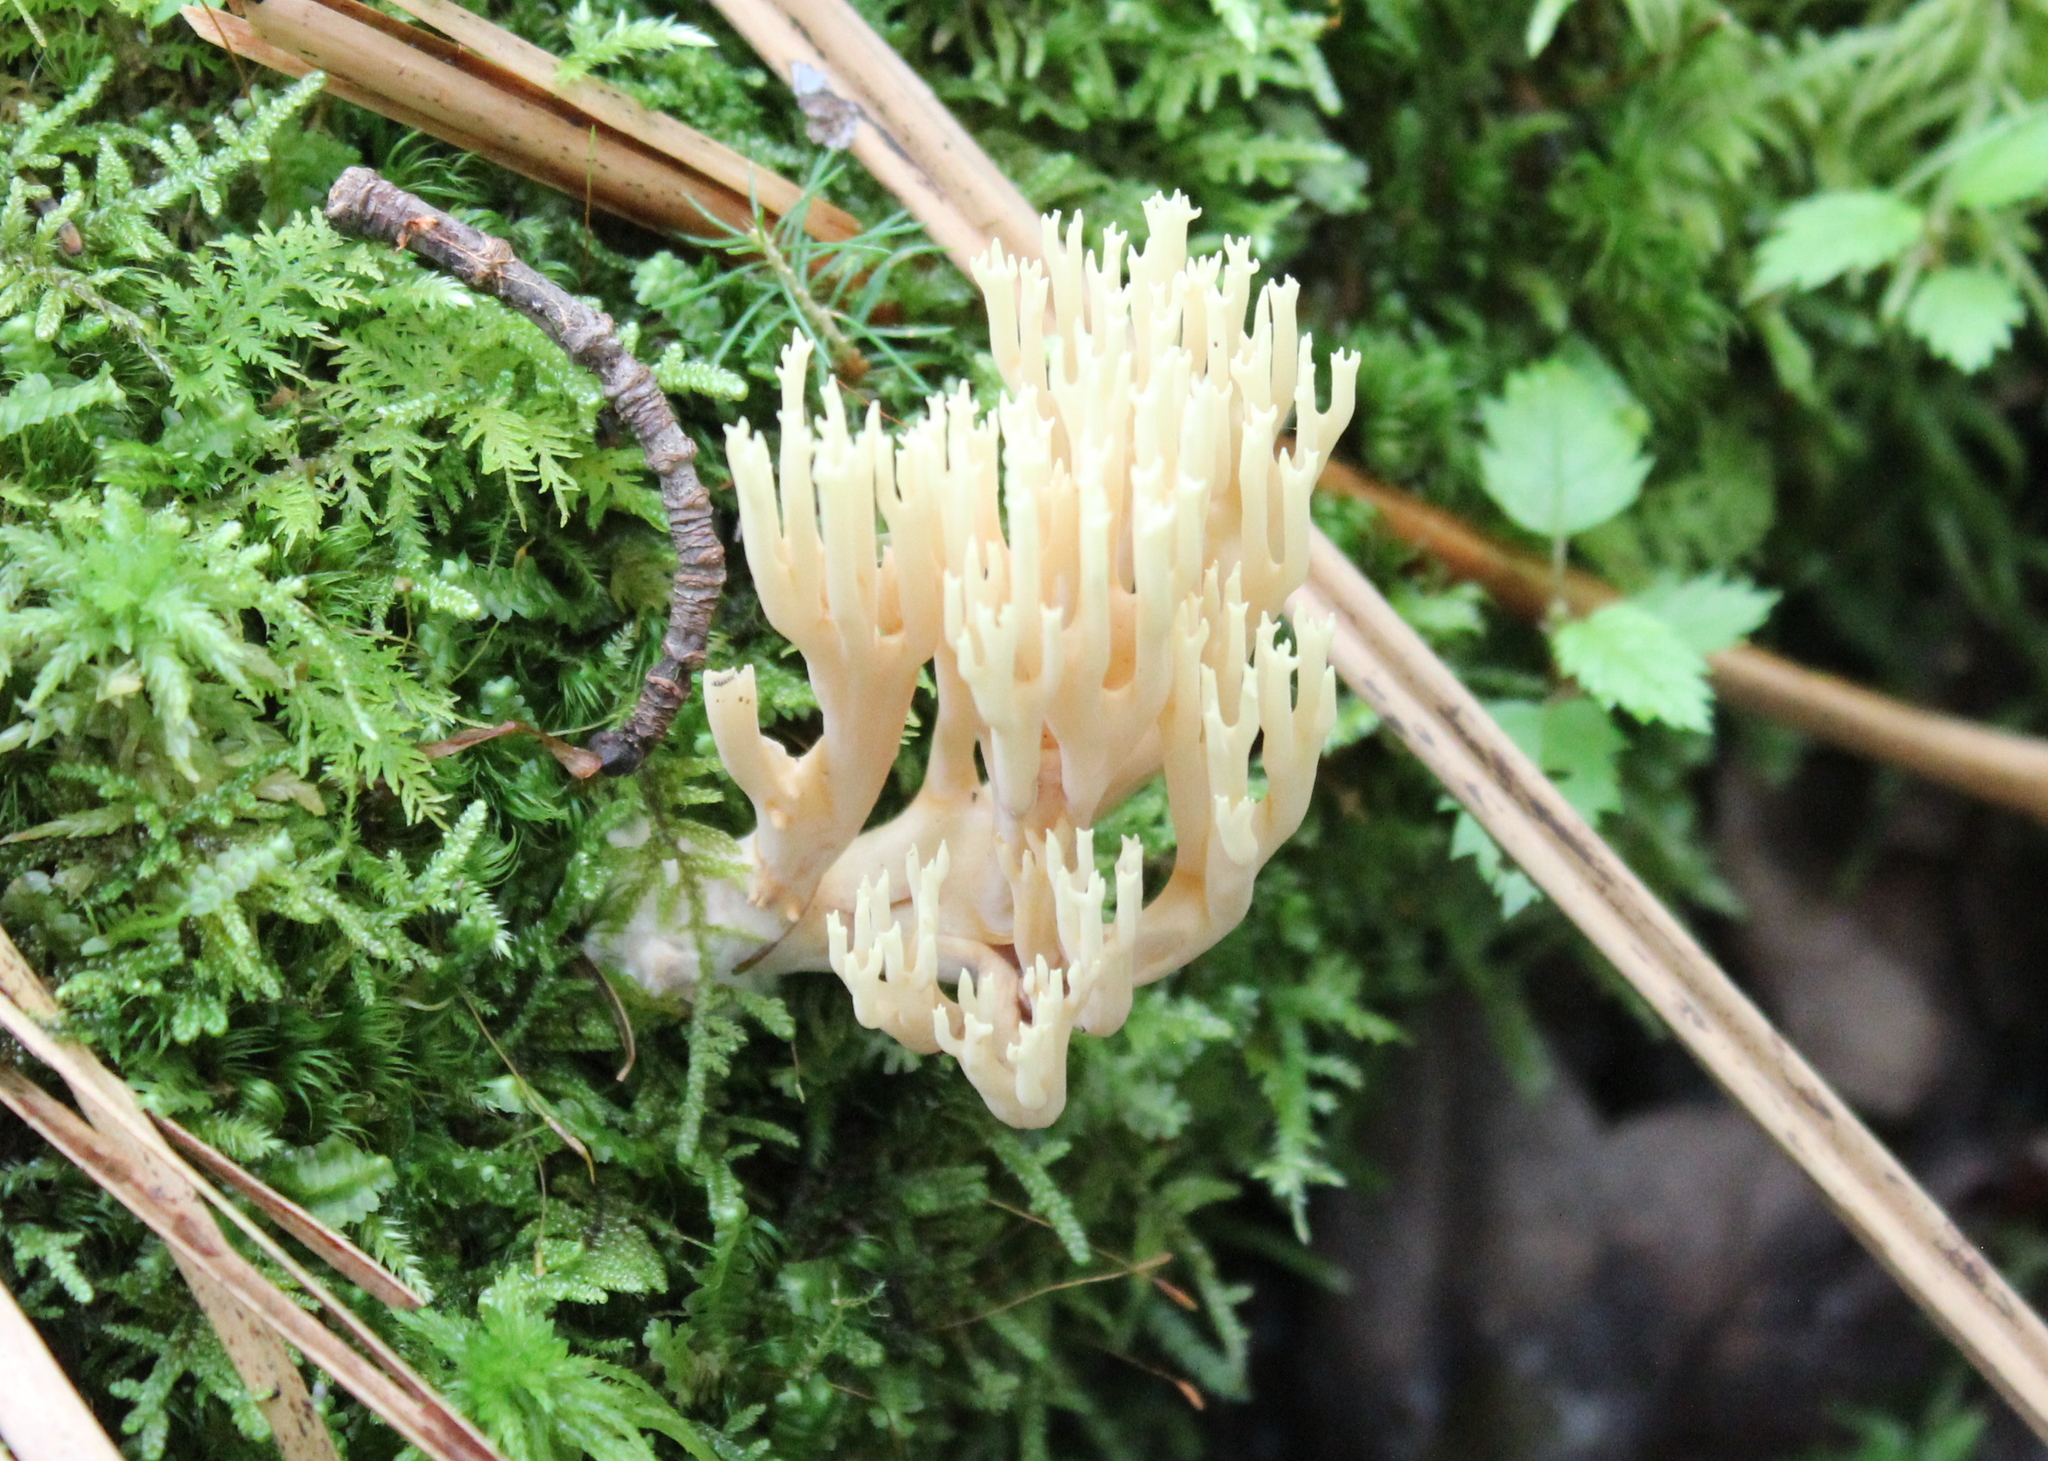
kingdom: Fungi
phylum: Basidiomycota
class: Agaricomycetes
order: Russulales
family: Auriscalpiaceae
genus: Artomyces
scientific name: Artomyces pyxidatus
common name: Crown-tipped coral fungus
